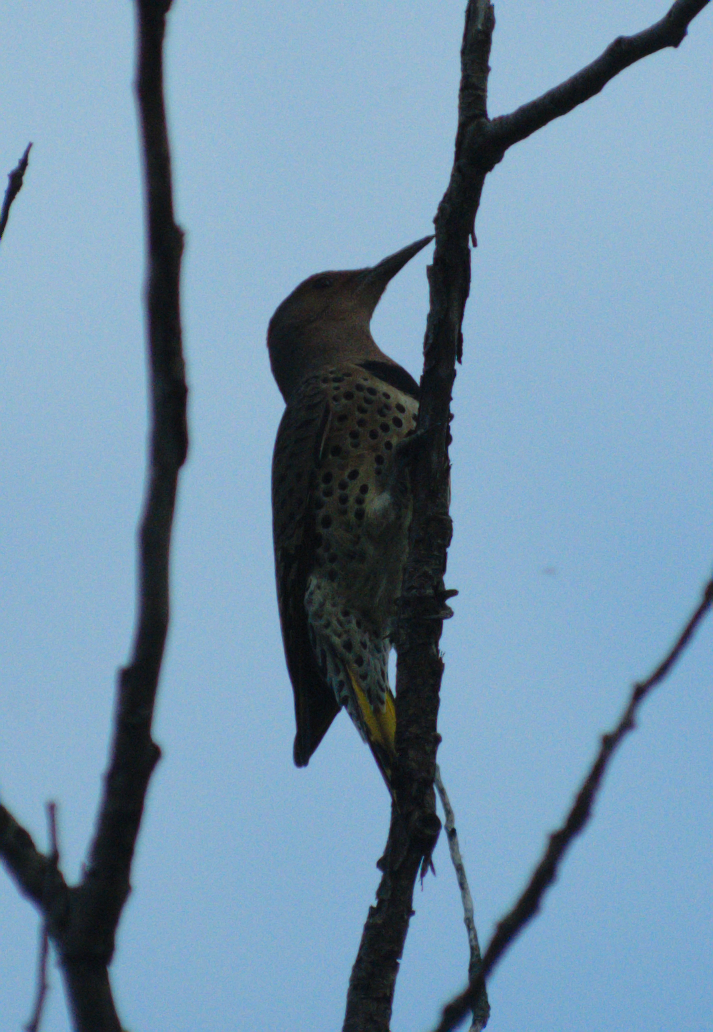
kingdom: Animalia
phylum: Chordata
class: Aves
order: Piciformes
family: Picidae
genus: Colaptes
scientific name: Colaptes auratus
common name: Northern flicker
